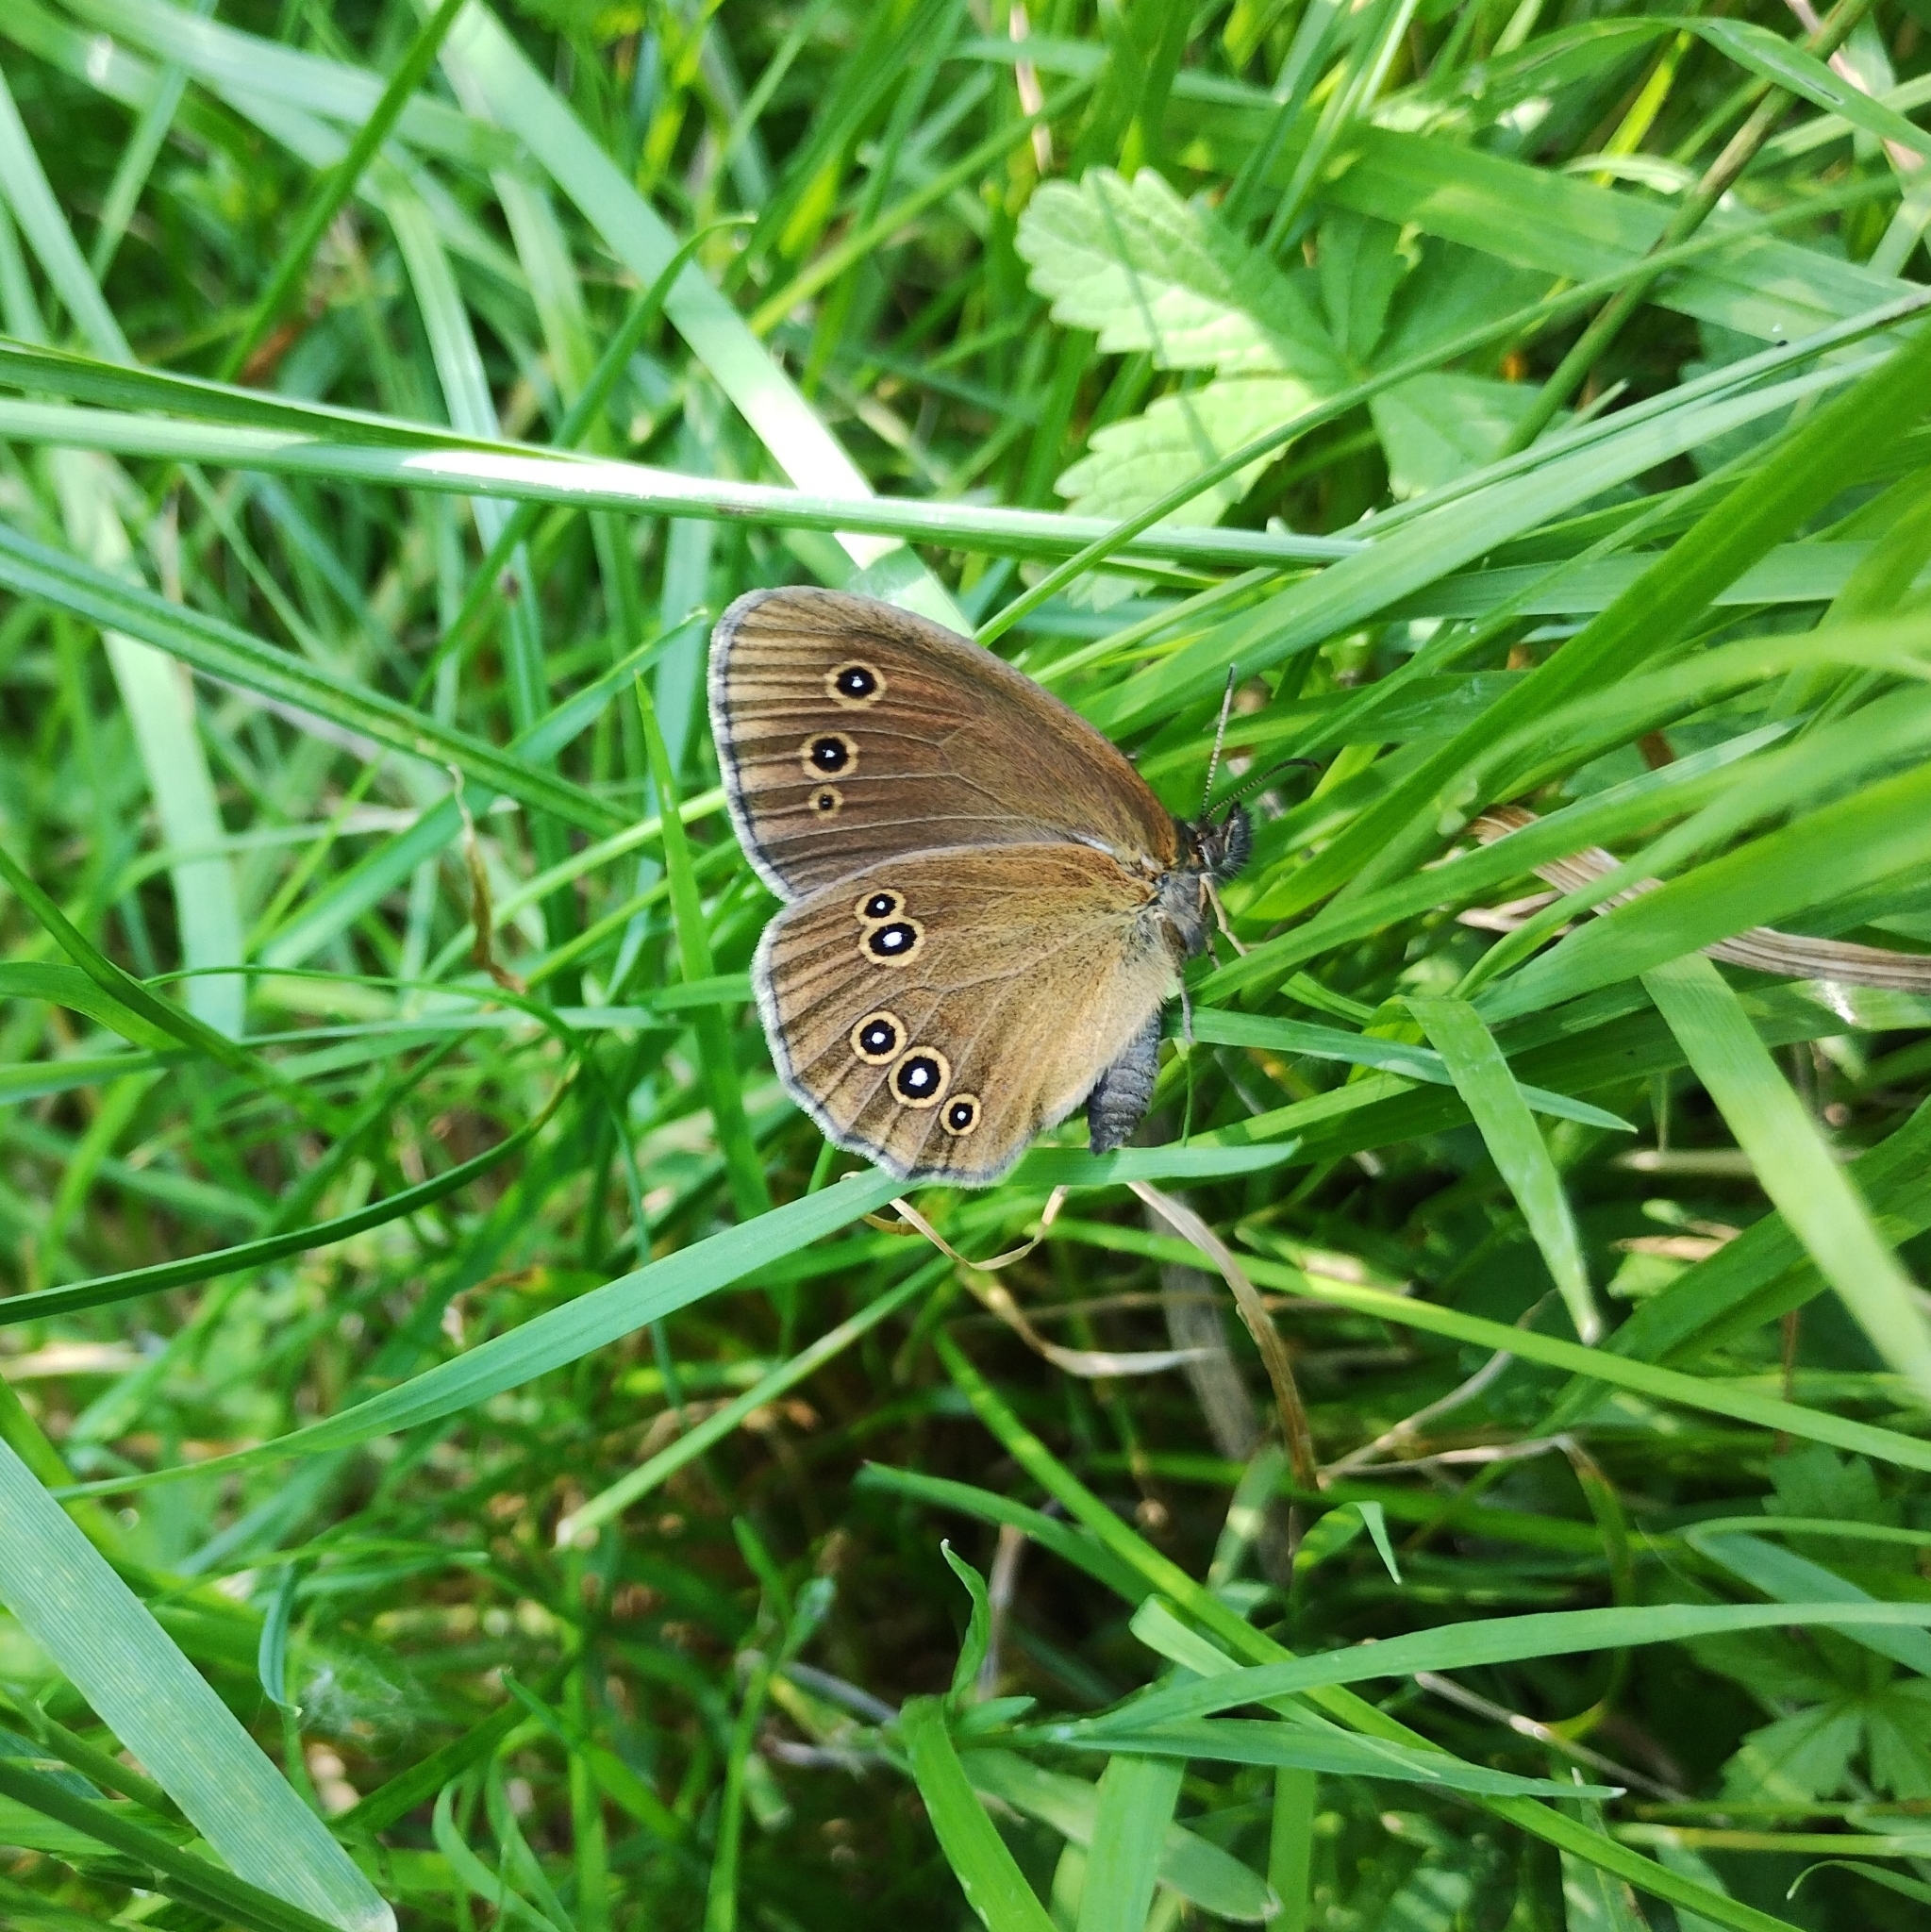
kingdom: Animalia
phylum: Arthropoda
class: Insecta
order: Lepidoptera
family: Nymphalidae
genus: Aphantopus
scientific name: Aphantopus hyperantus
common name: Ringlet
